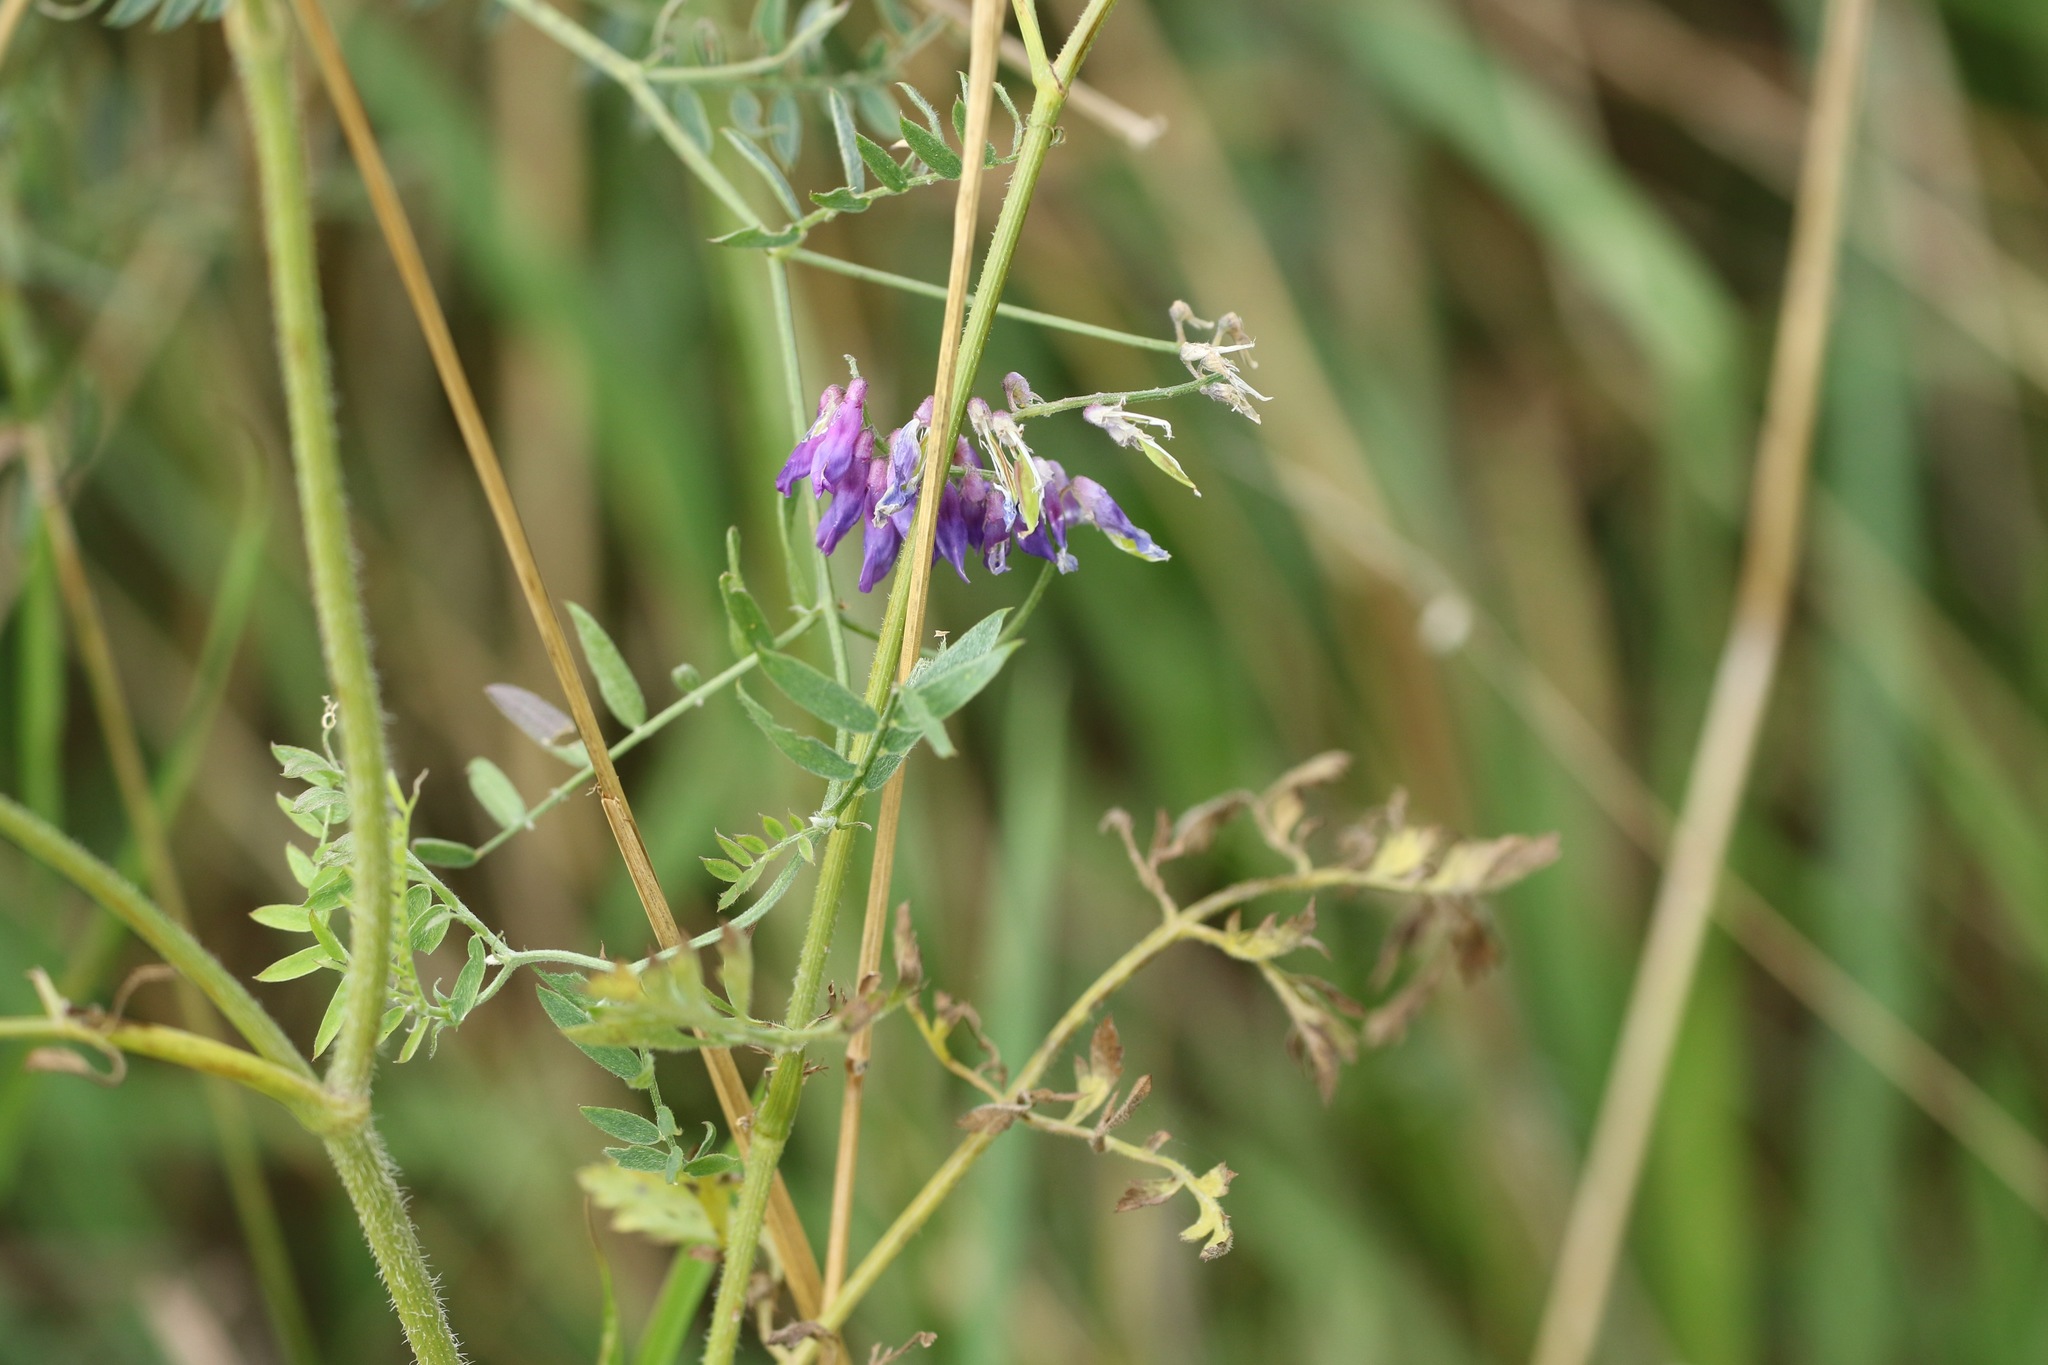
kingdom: Plantae
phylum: Tracheophyta
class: Magnoliopsida
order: Fabales
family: Fabaceae
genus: Vicia
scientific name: Vicia cracca
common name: Bird vetch
